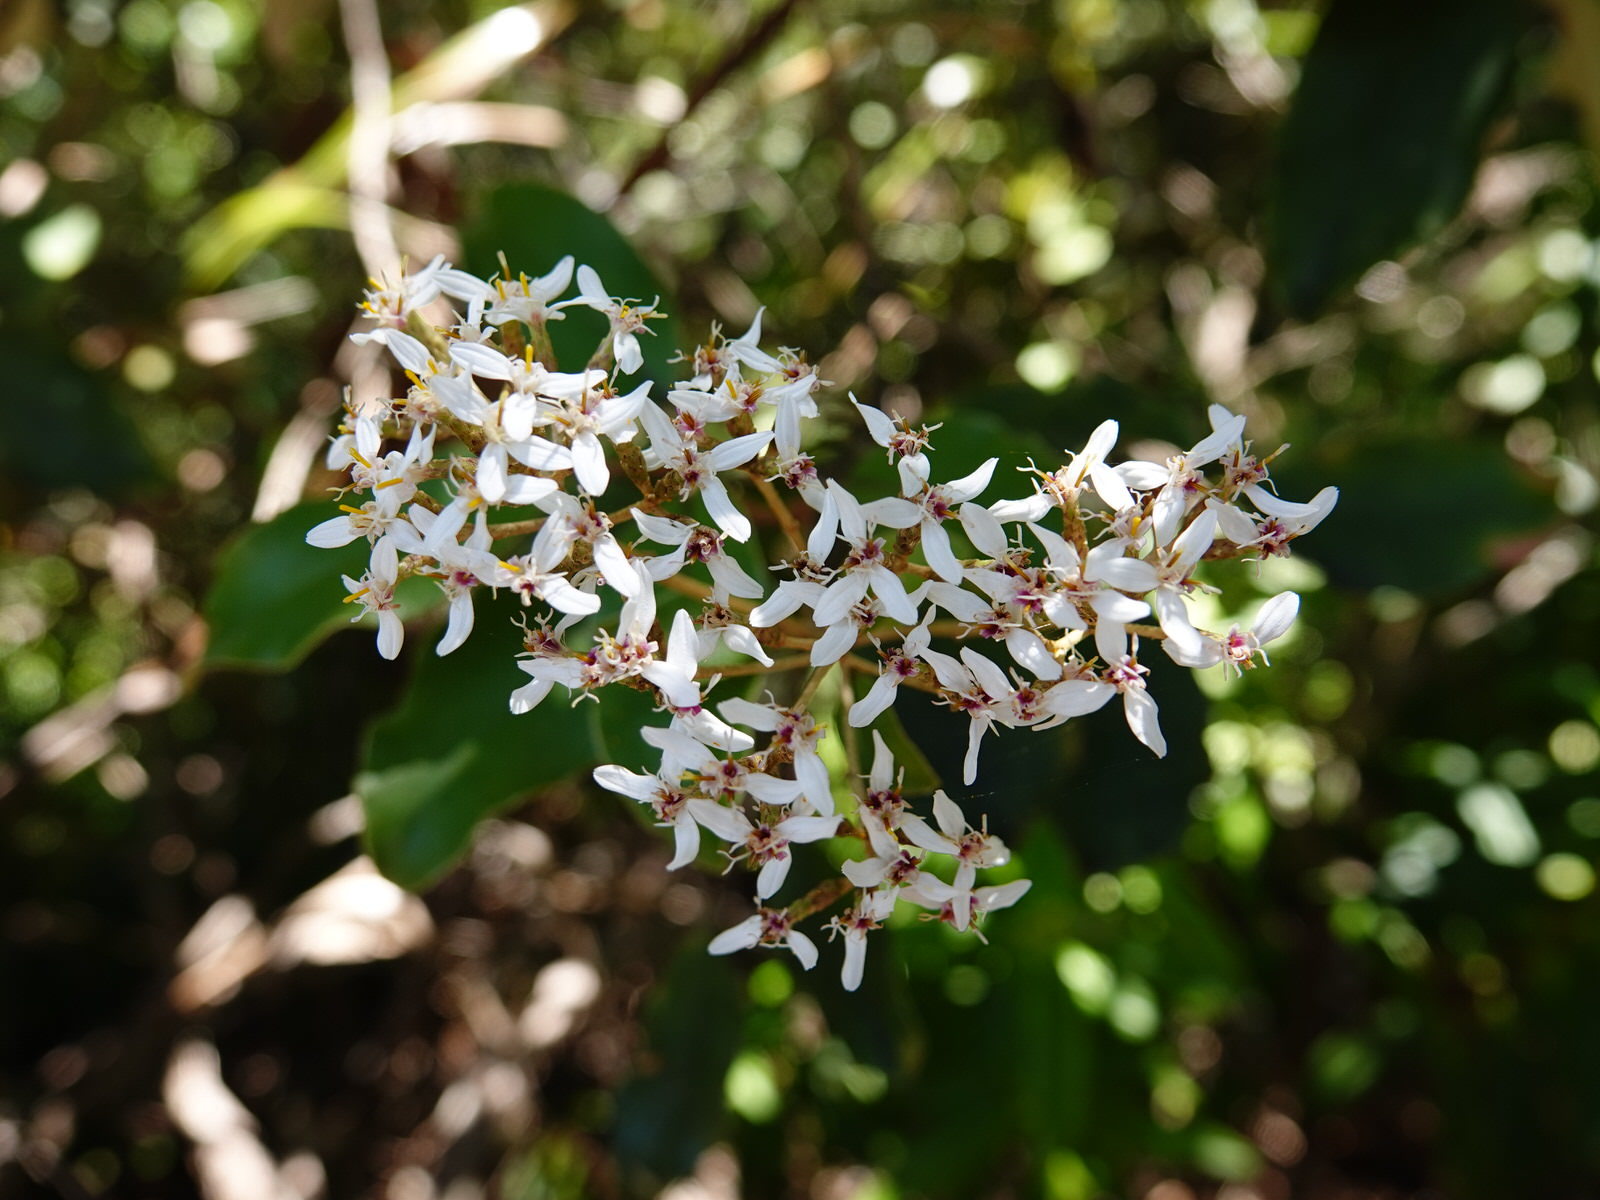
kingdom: Plantae
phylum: Tracheophyta
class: Magnoliopsida
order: Asterales
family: Asteraceae
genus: Olearia
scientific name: Olearia furfuracea
